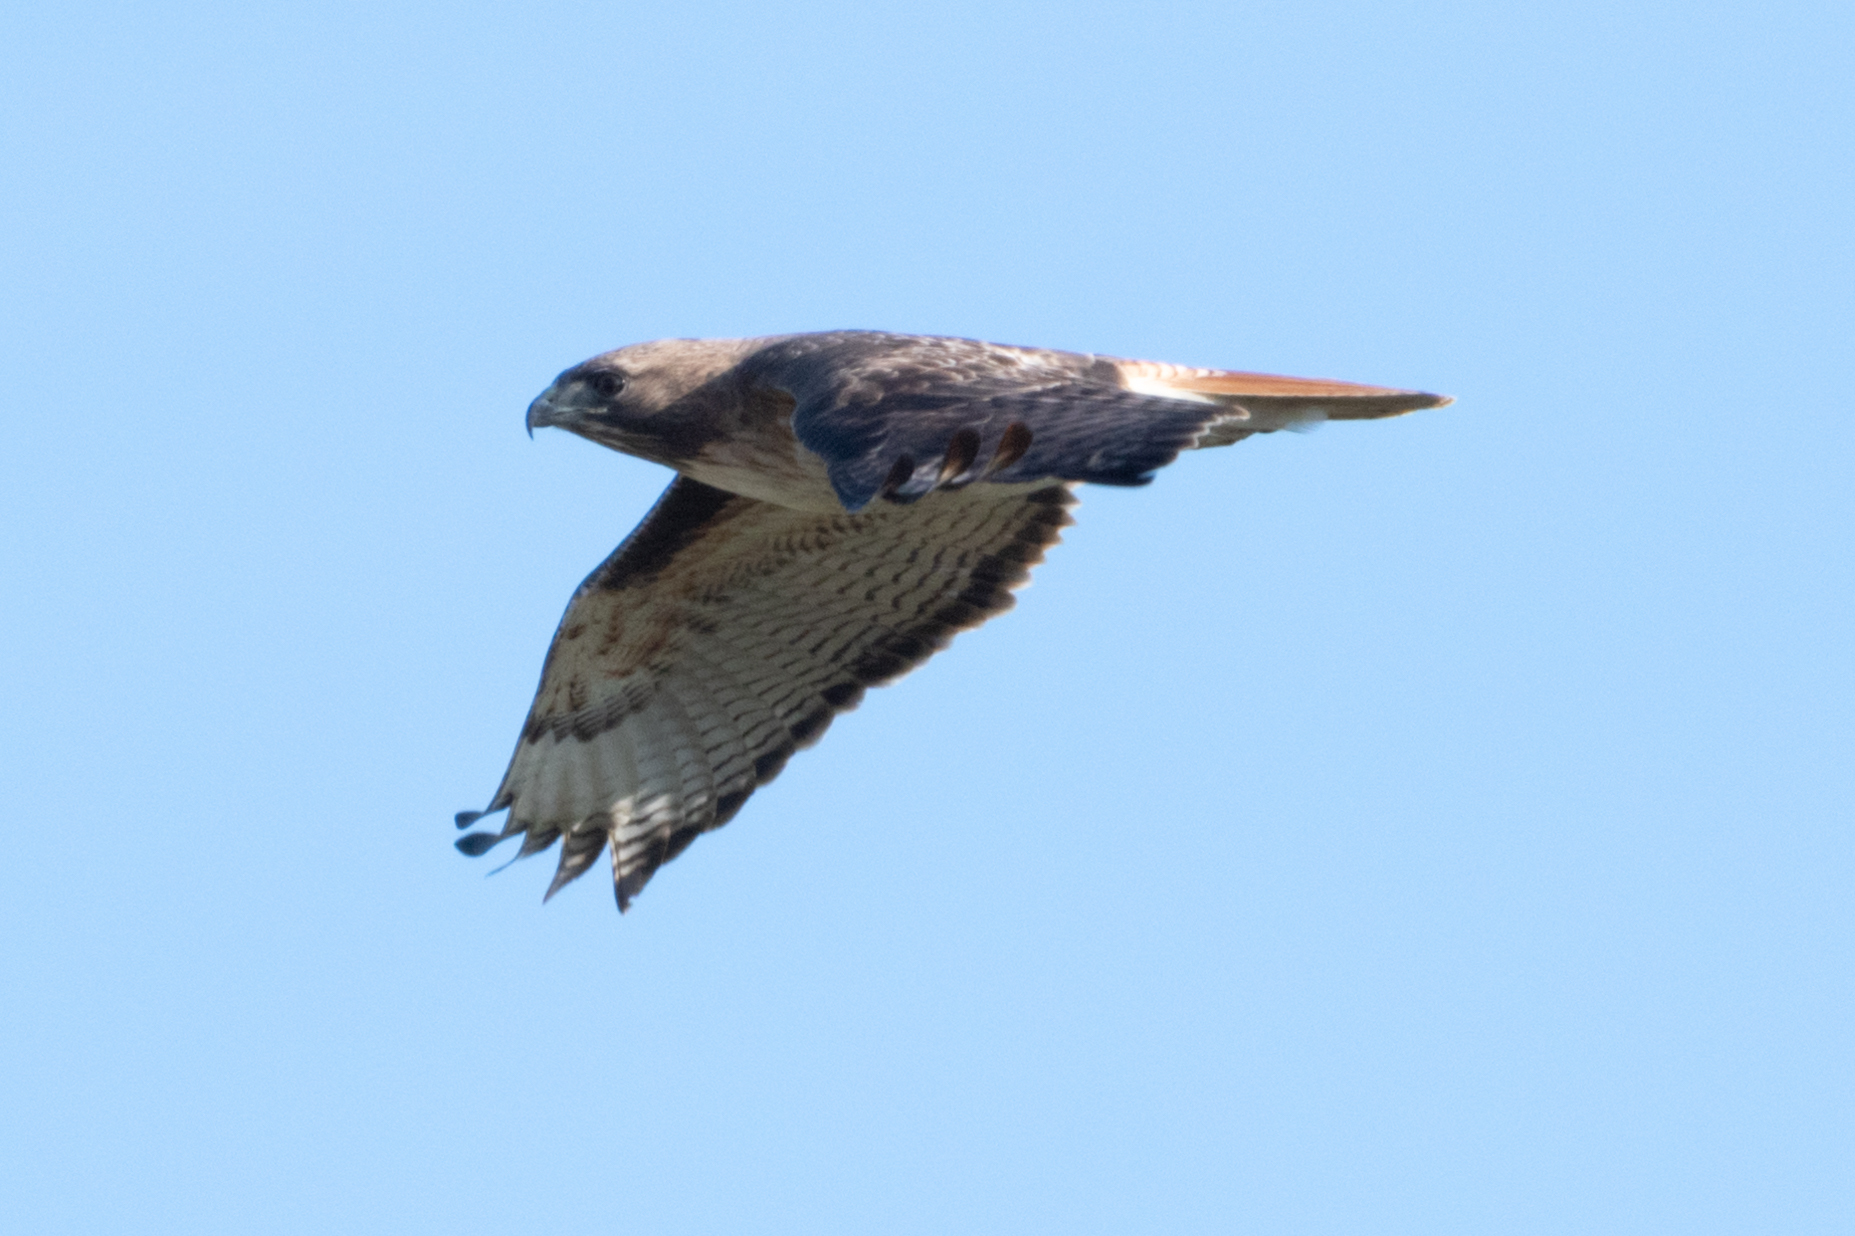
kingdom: Animalia
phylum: Chordata
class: Aves
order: Accipitriformes
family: Accipitridae
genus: Buteo
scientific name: Buteo jamaicensis
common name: Red-tailed hawk
